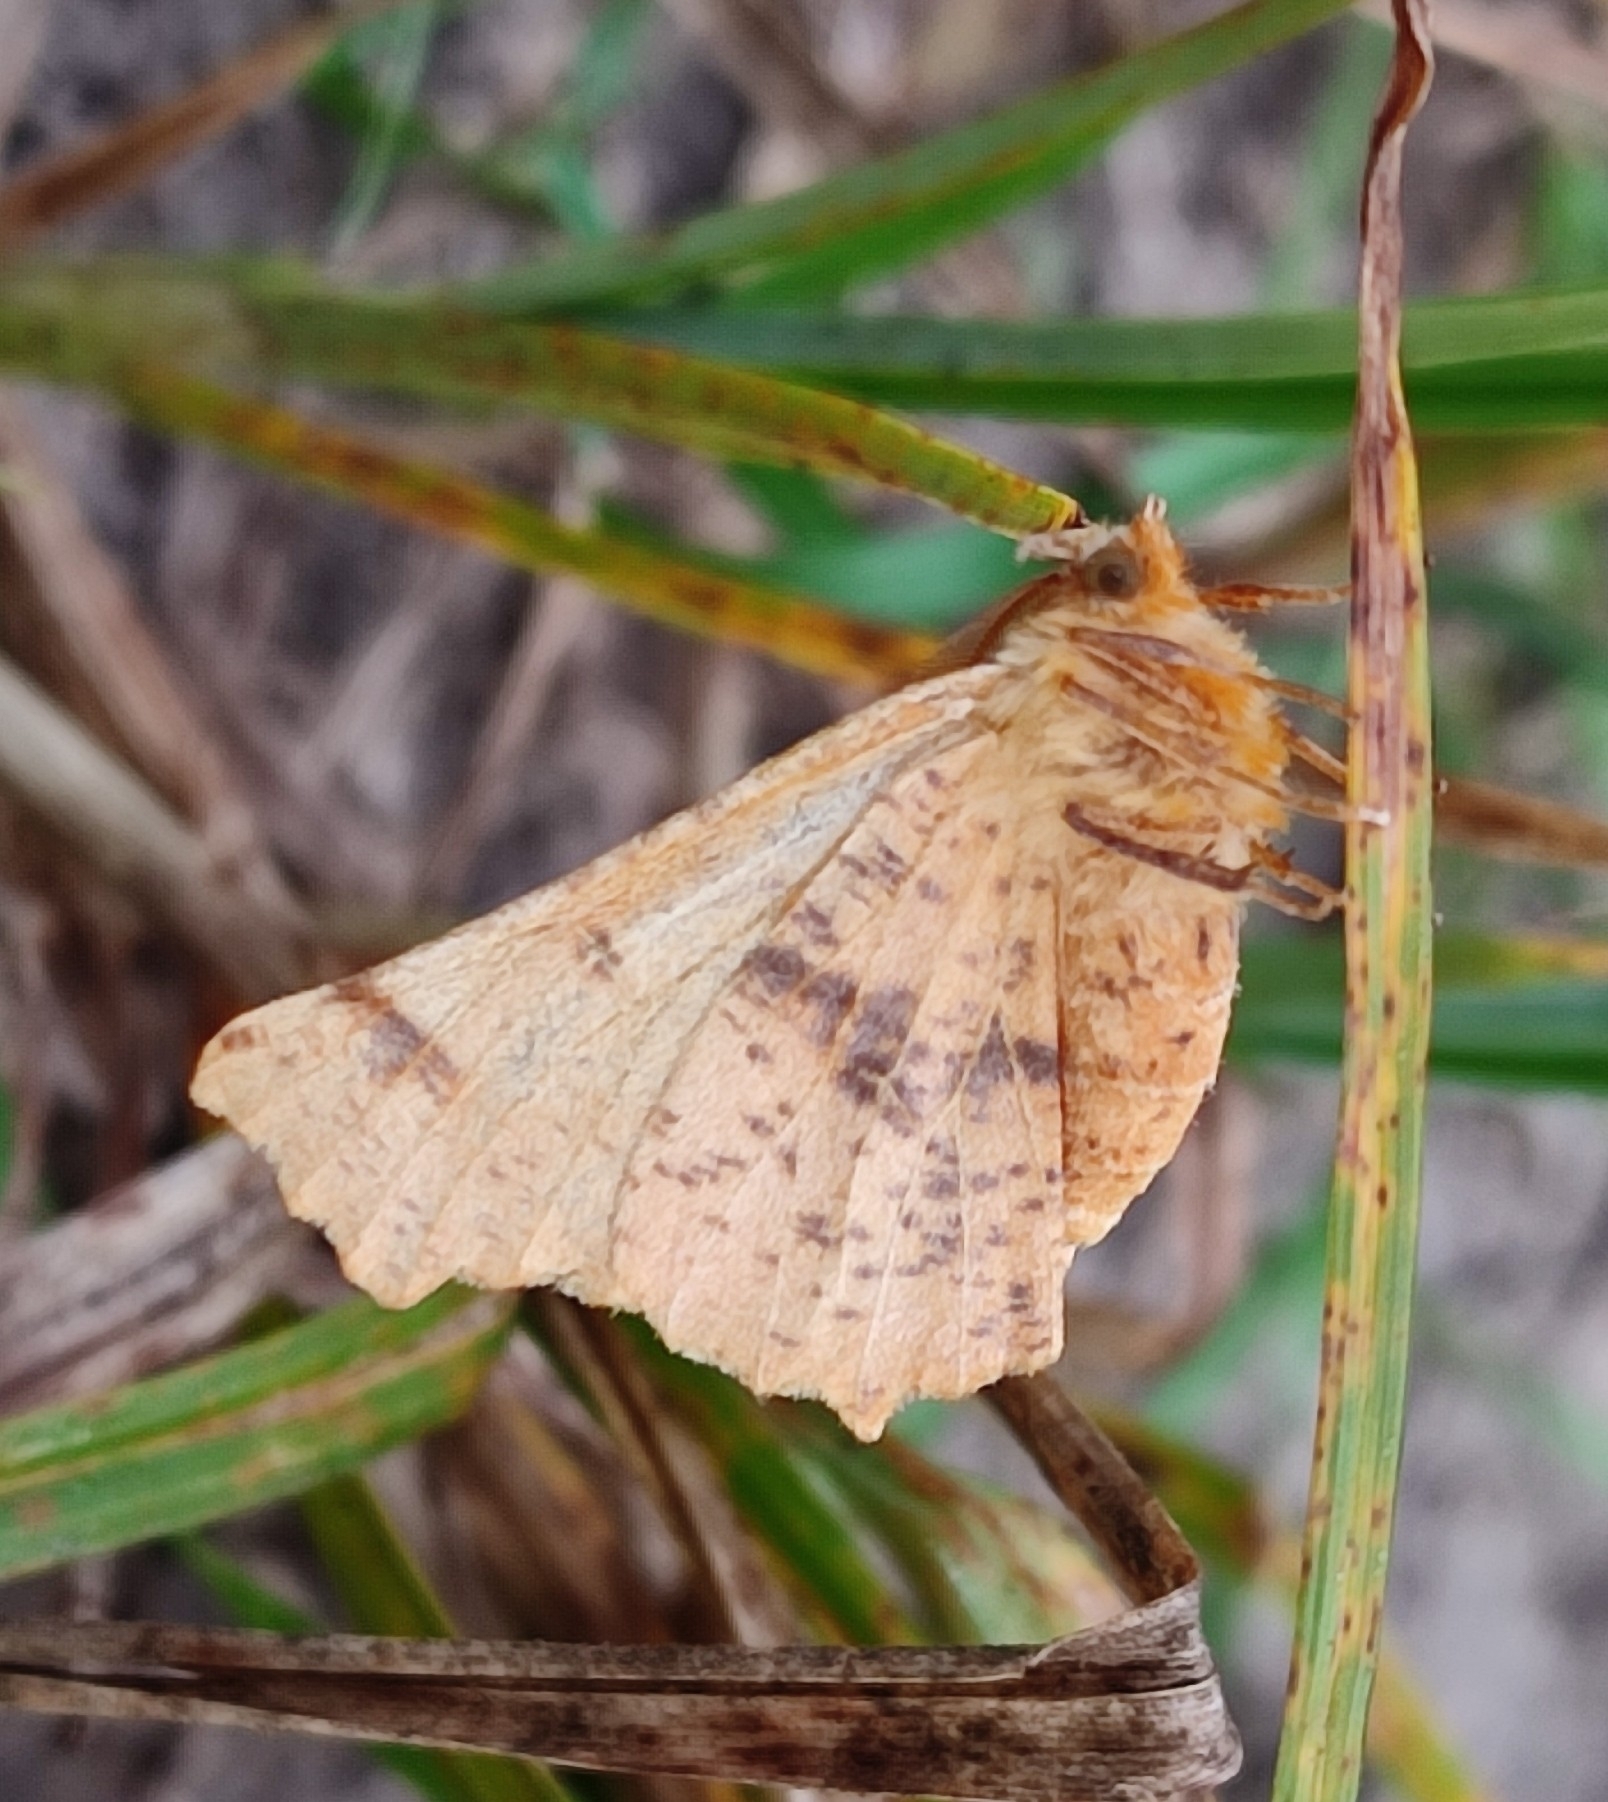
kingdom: Animalia
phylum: Arthropoda
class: Insecta
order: Lepidoptera
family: Geometridae
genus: Ennomos
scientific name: Ennomos autumnaria
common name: Large thorn
